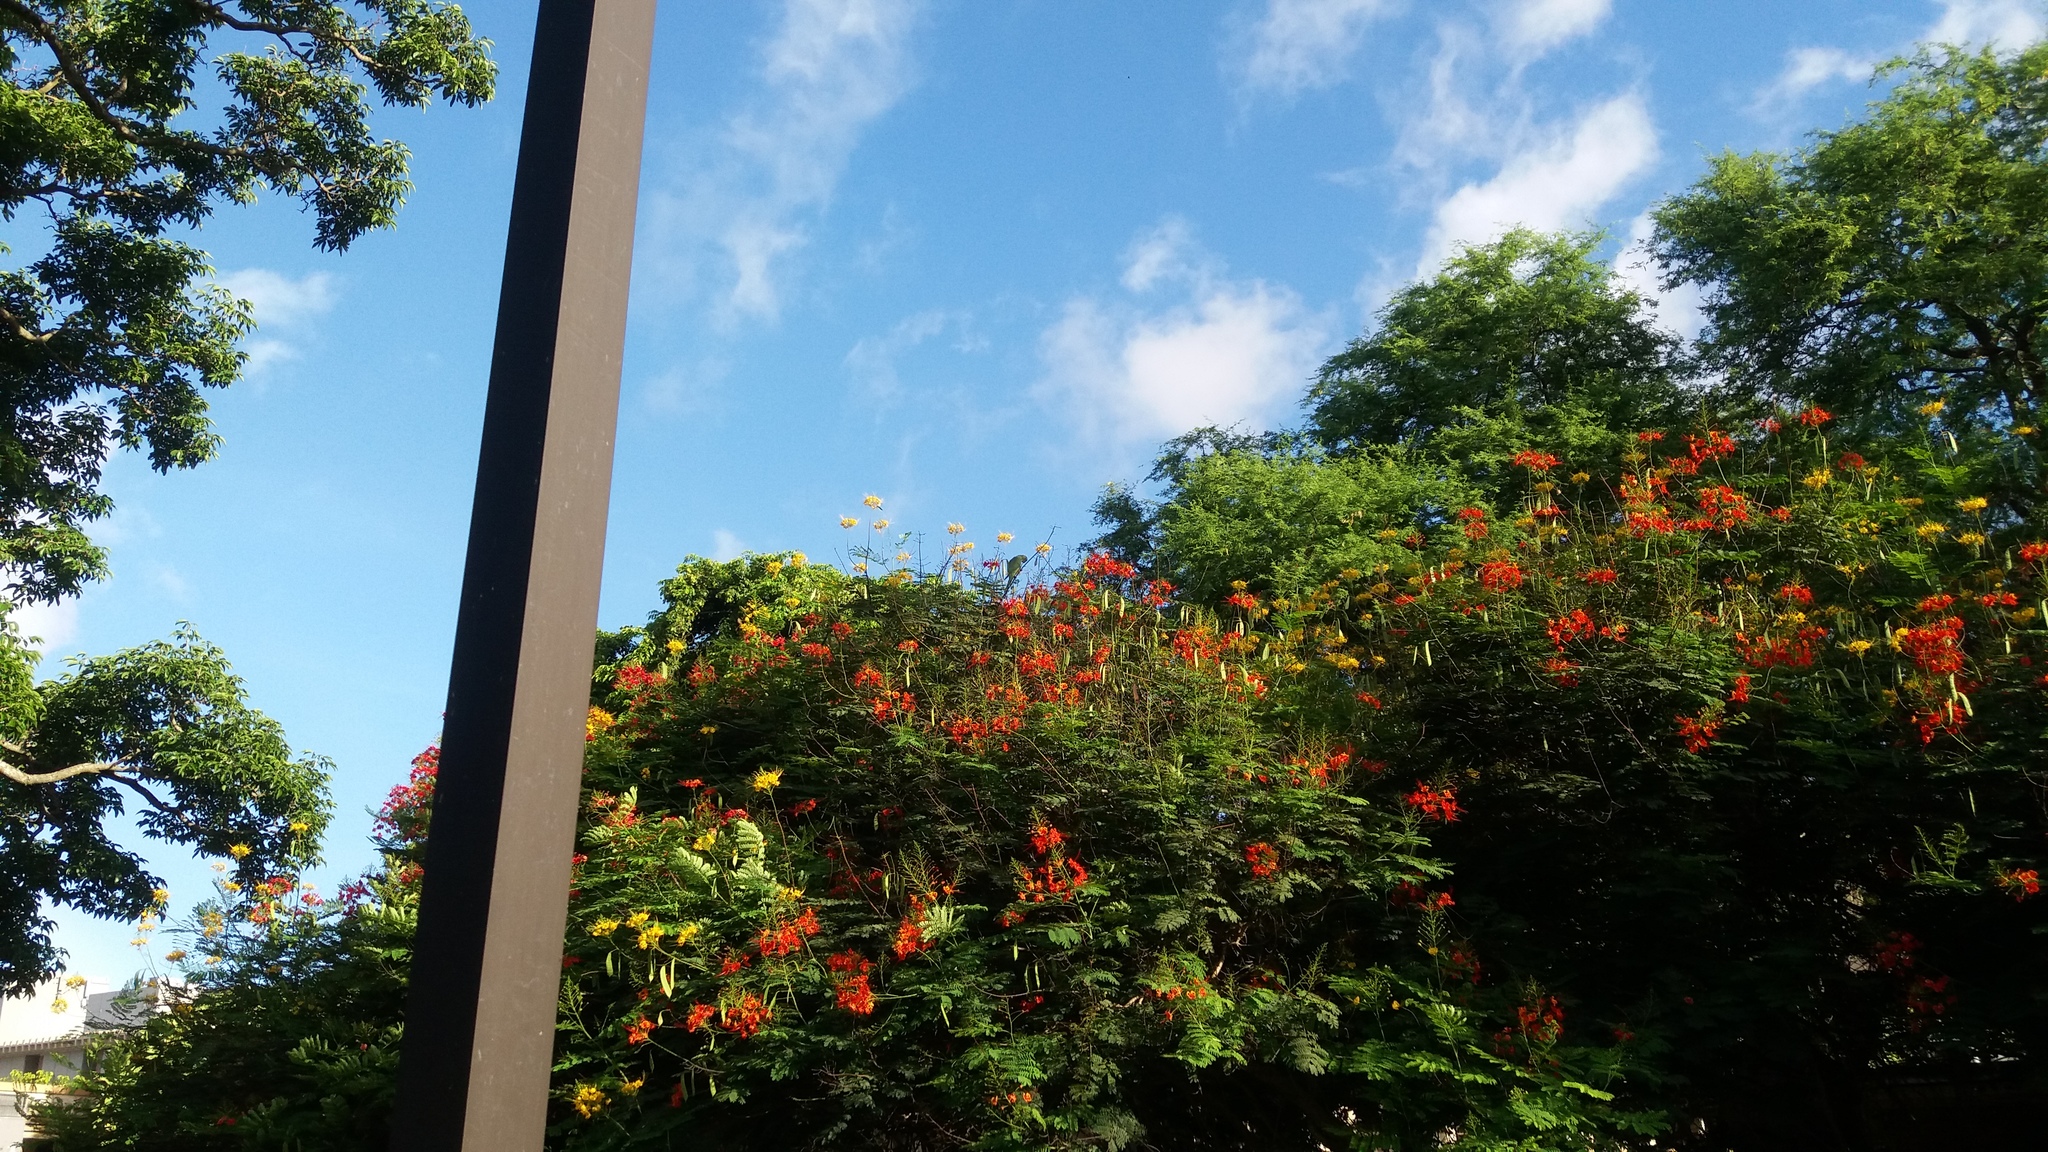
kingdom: Animalia
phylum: Chordata
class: Aves
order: Psittaciformes
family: Psittacidae
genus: Psittacula
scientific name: Psittacula krameri
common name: Rose-ringed parakeet
